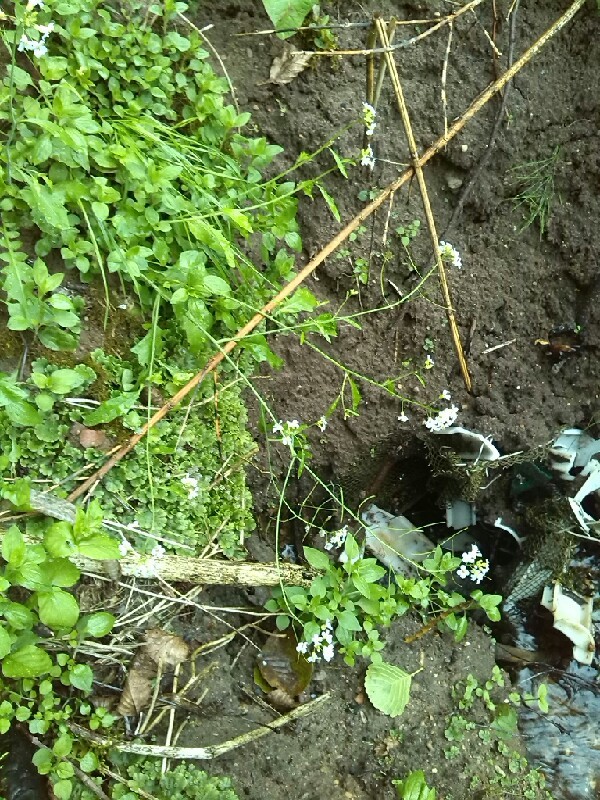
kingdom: Plantae
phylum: Tracheophyta
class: Magnoliopsida
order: Brassicales
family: Brassicaceae
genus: Arabidopsis
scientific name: Arabidopsis arenosa
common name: Sand rock-cress
